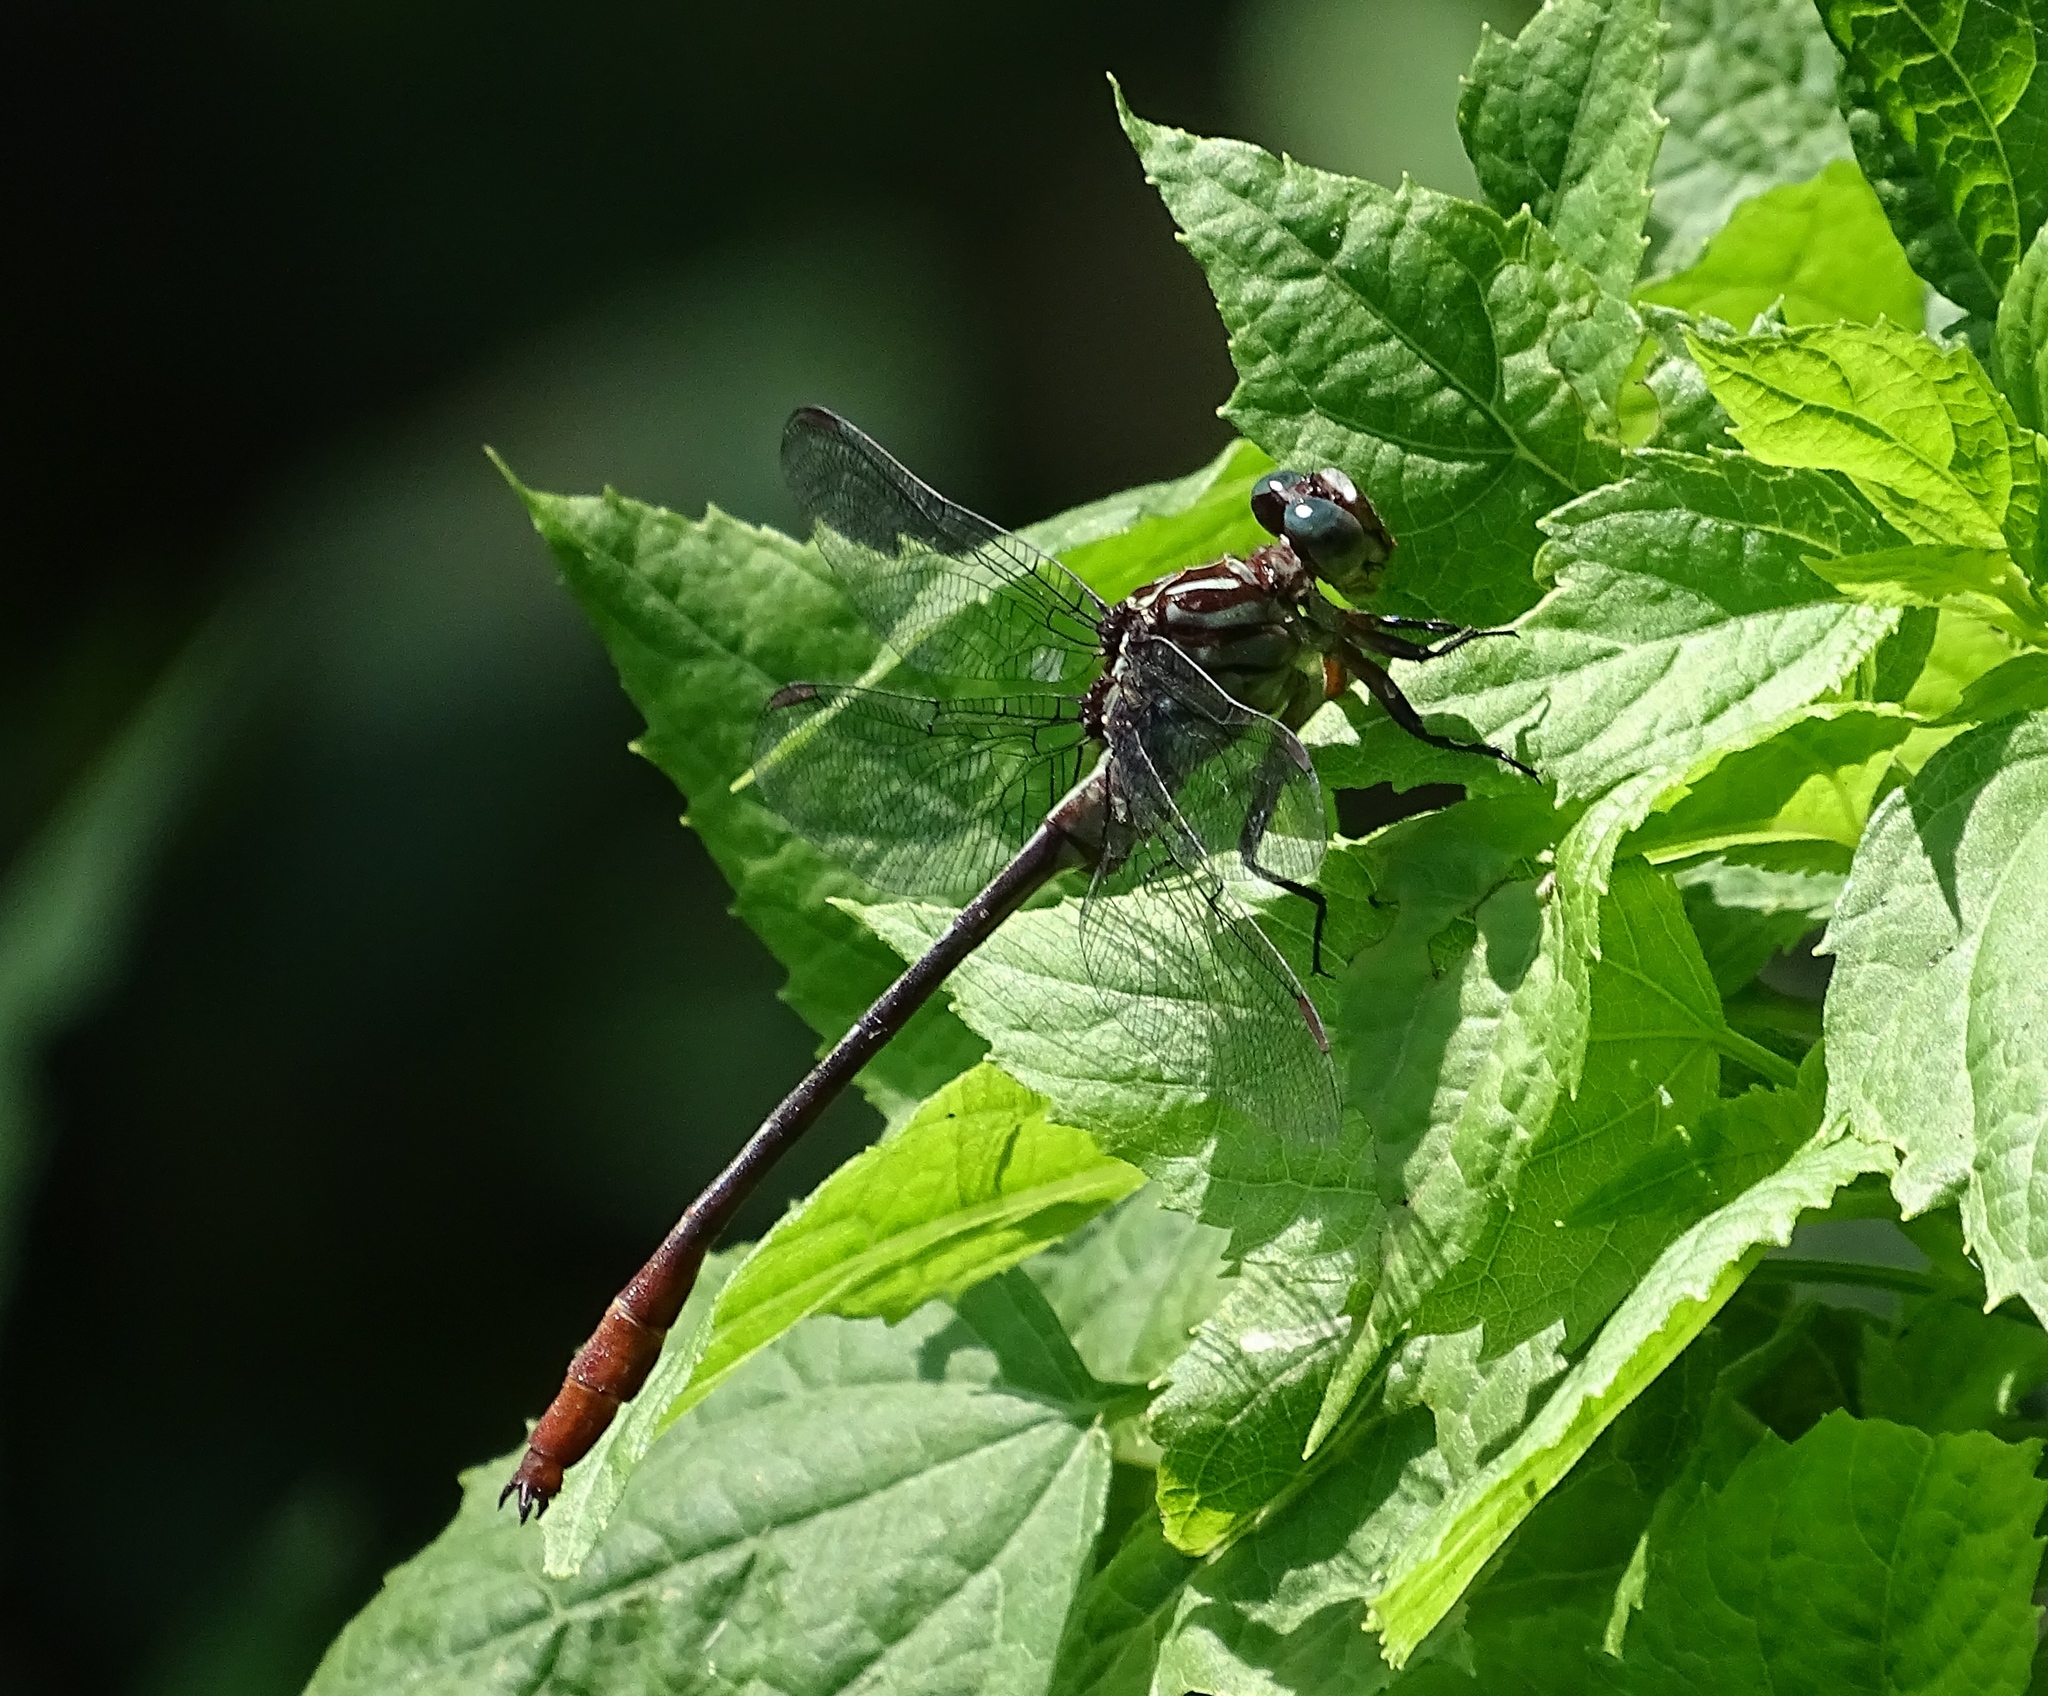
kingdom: Animalia
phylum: Arthropoda
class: Insecta
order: Odonata
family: Gomphidae
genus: Stylurus
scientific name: Stylurus plagiatus
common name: Russet-tipped clubtail
